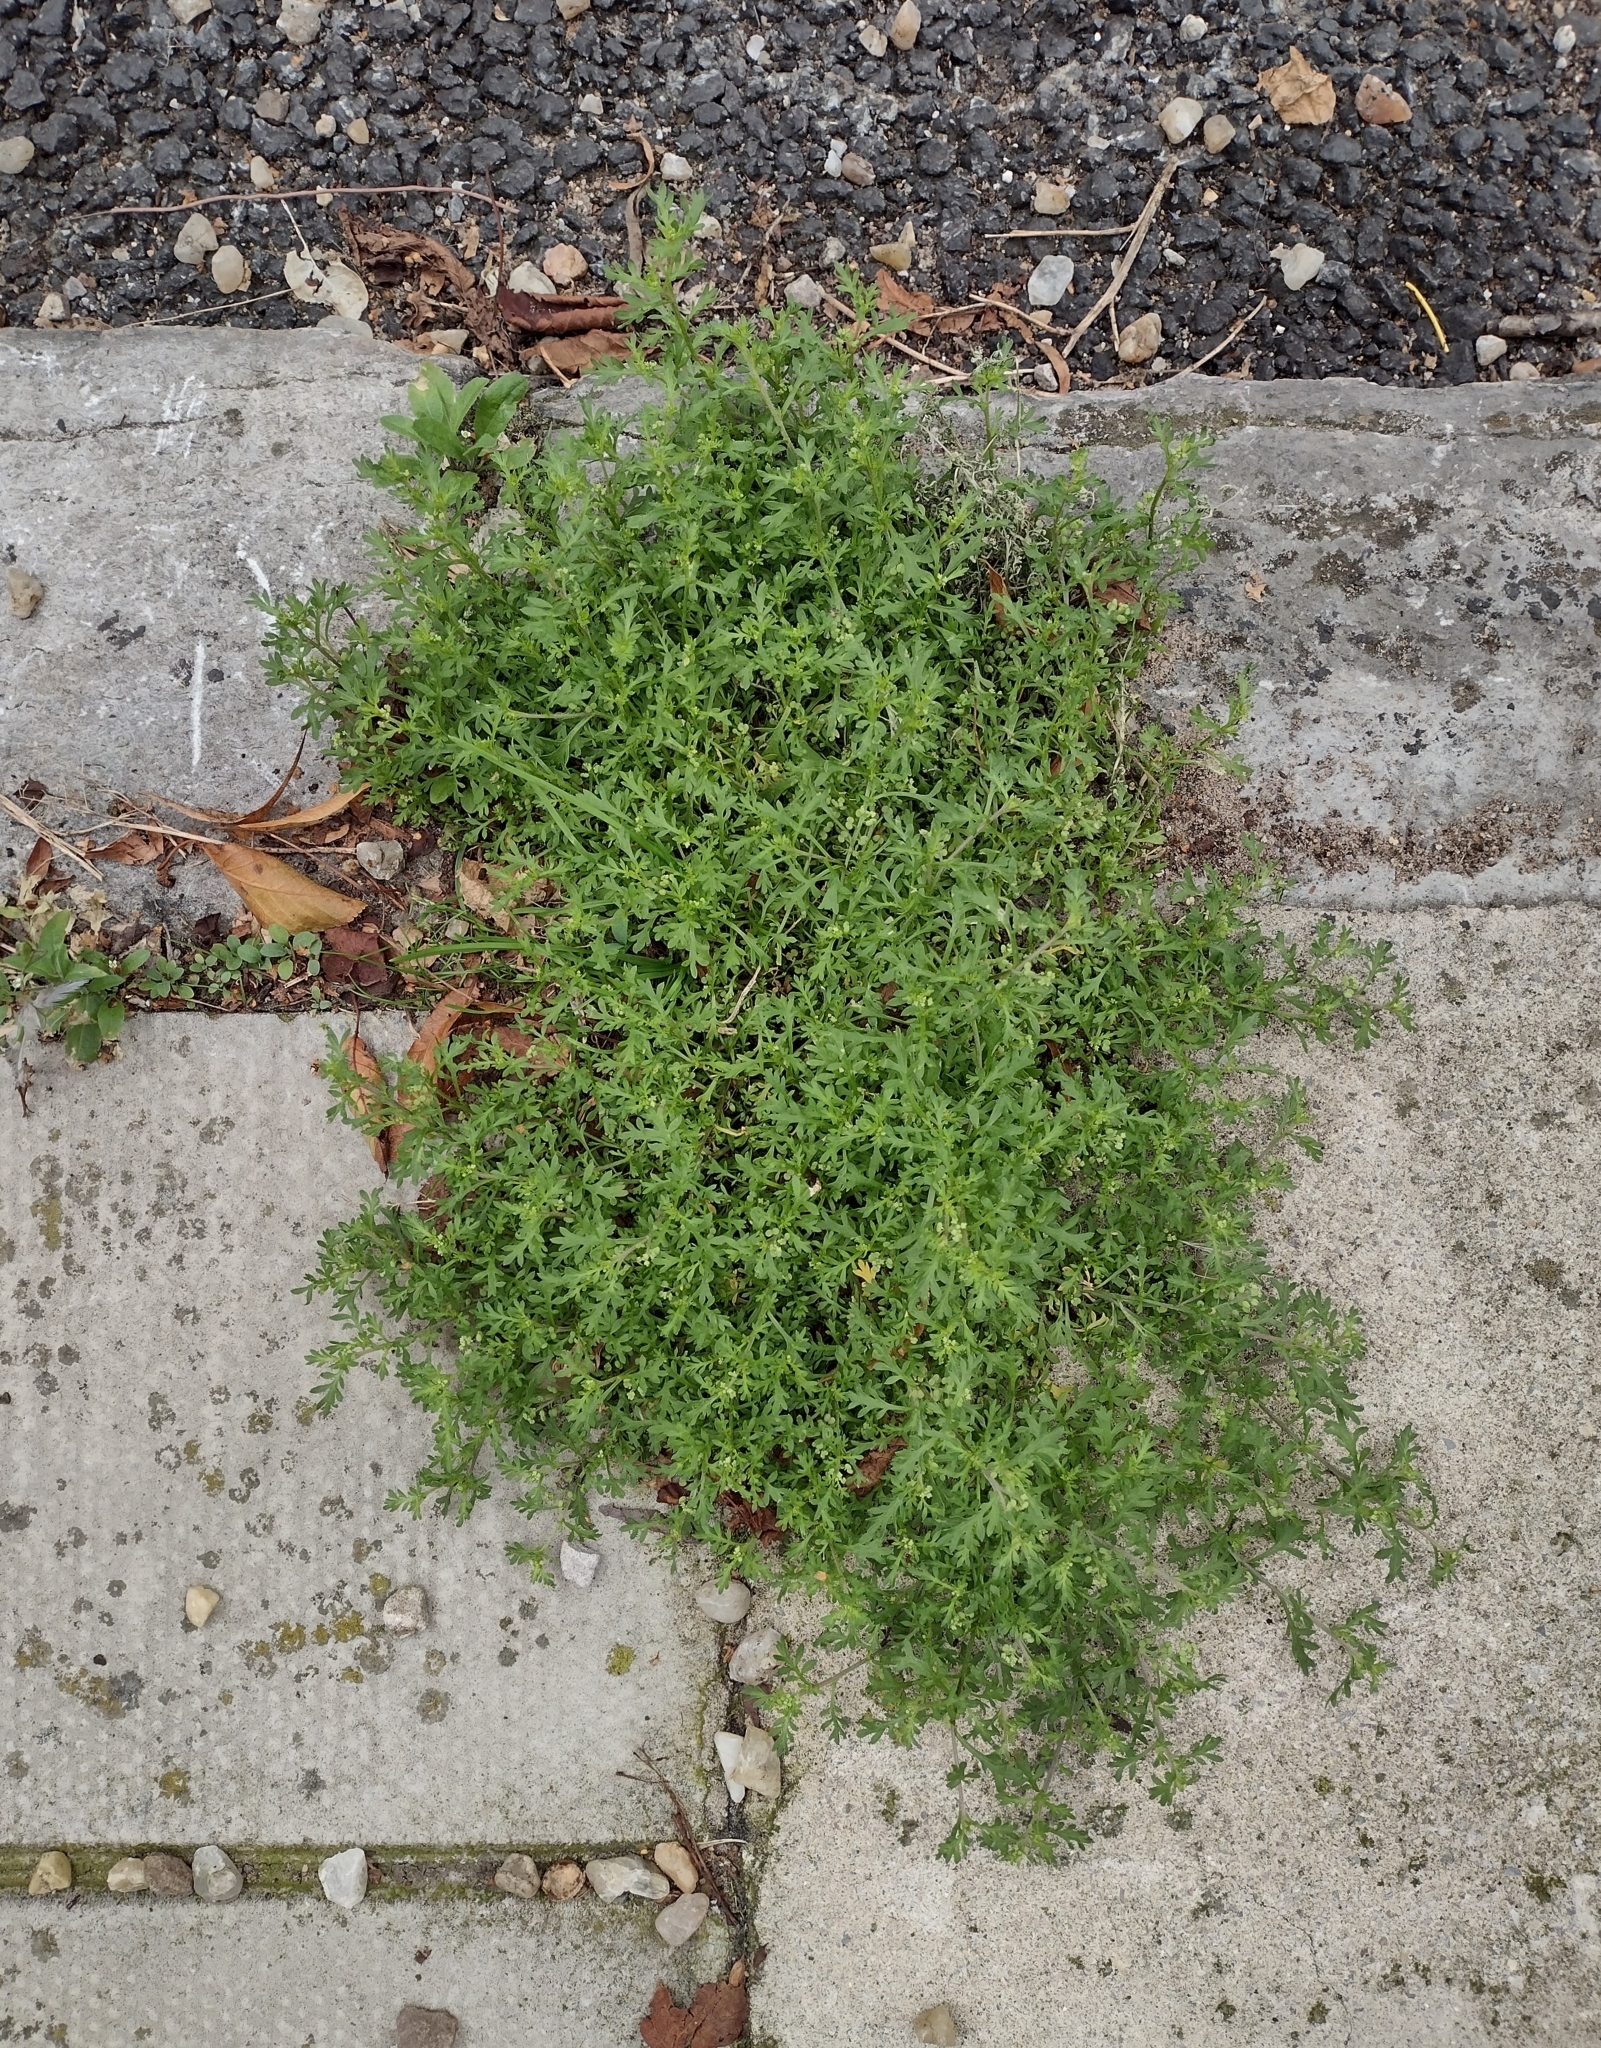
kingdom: Plantae
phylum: Tracheophyta
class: Magnoliopsida
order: Brassicales
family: Brassicaceae
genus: Lepidium
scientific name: Lepidium didymum
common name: Lesser swinecress
